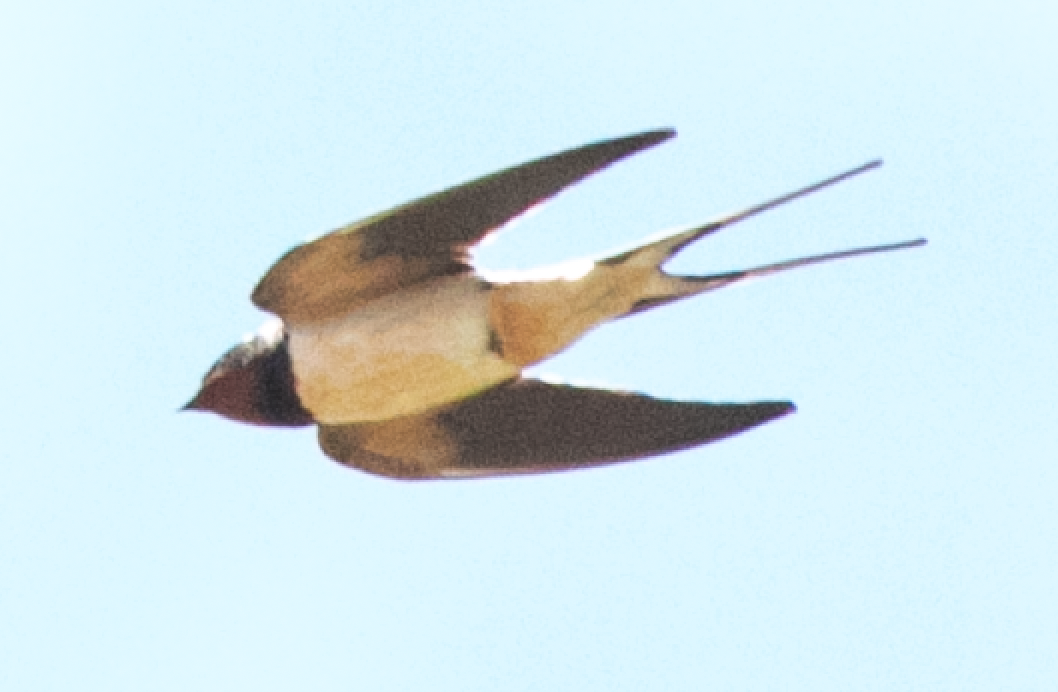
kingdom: Animalia
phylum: Chordata
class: Aves
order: Passeriformes
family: Hirundinidae
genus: Hirundo
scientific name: Hirundo rustica
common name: Barn swallow
